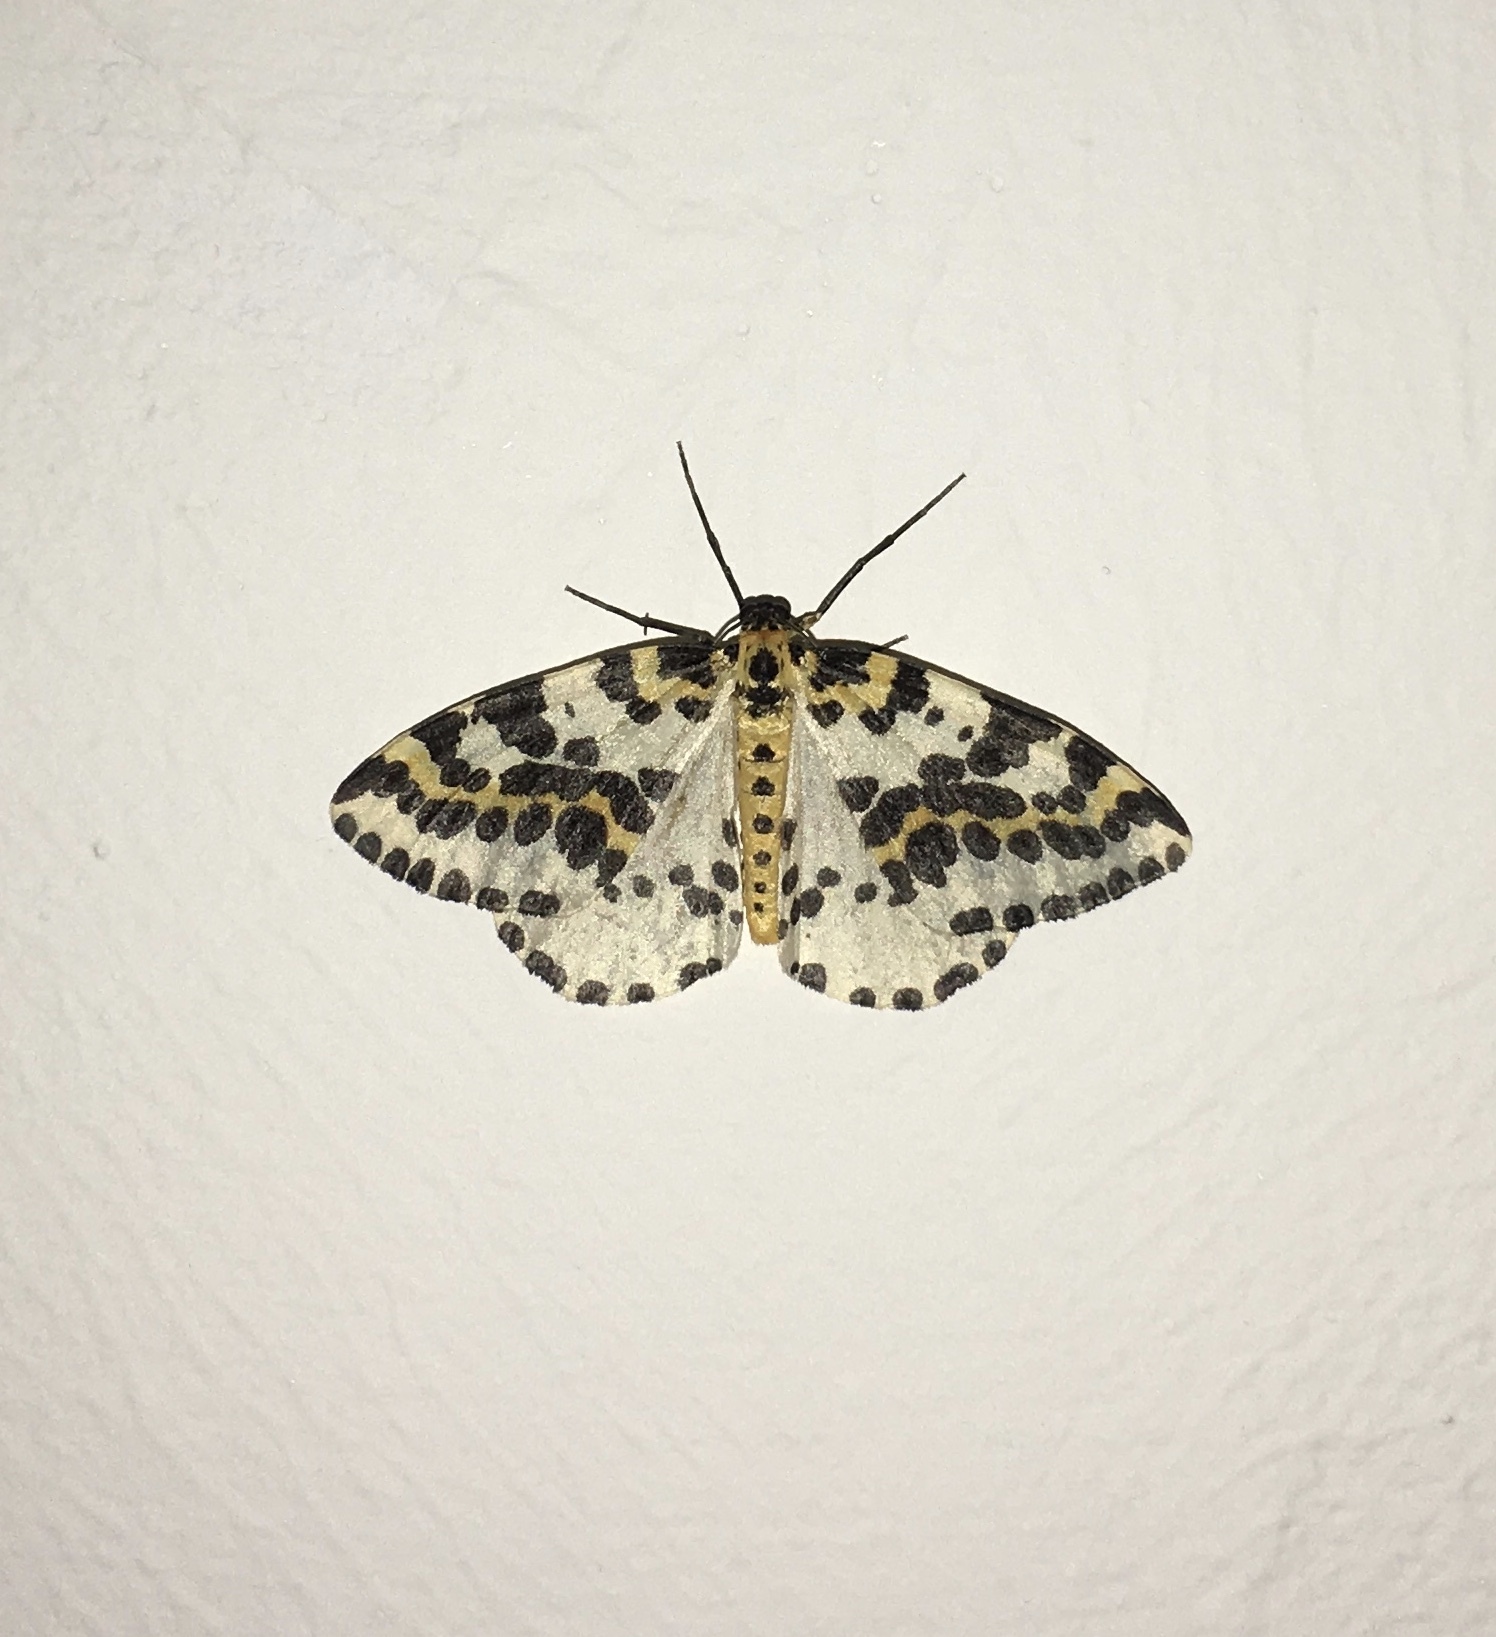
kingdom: Animalia
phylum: Arthropoda
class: Insecta
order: Lepidoptera
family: Geometridae
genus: Abraxas
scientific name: Abraxas grossulariata
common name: Magpie
